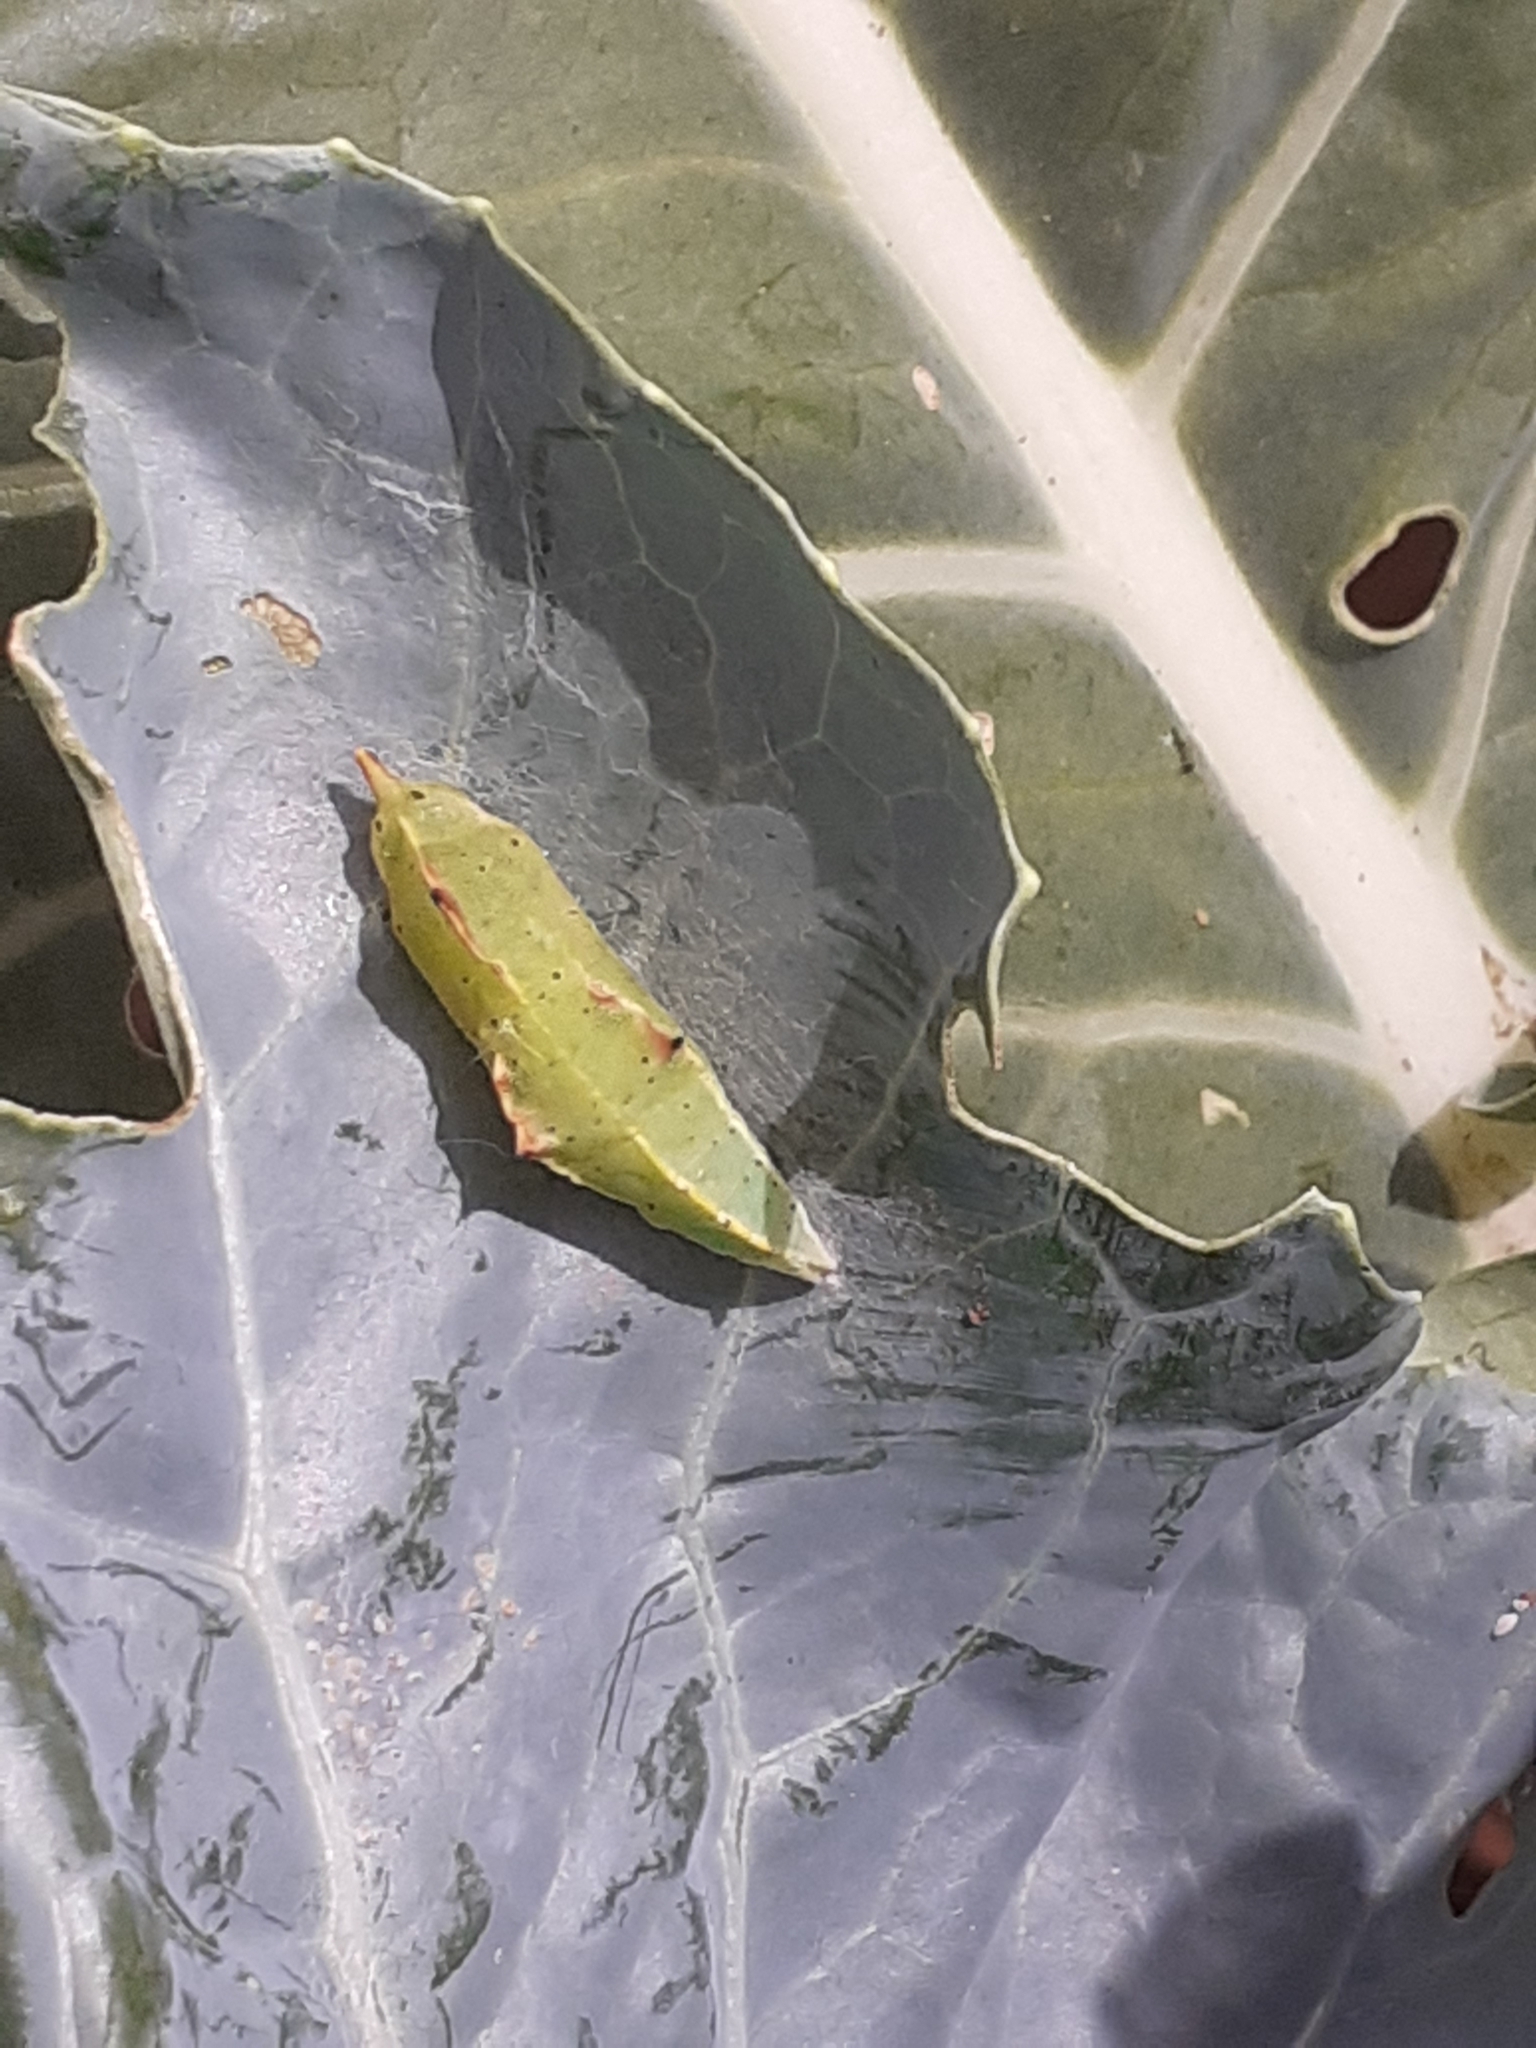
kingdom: Animalia
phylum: Arthropoda
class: Insecta
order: Lepidoptera
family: Pieridae
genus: Pieris
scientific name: Pieris rapae
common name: Small white
